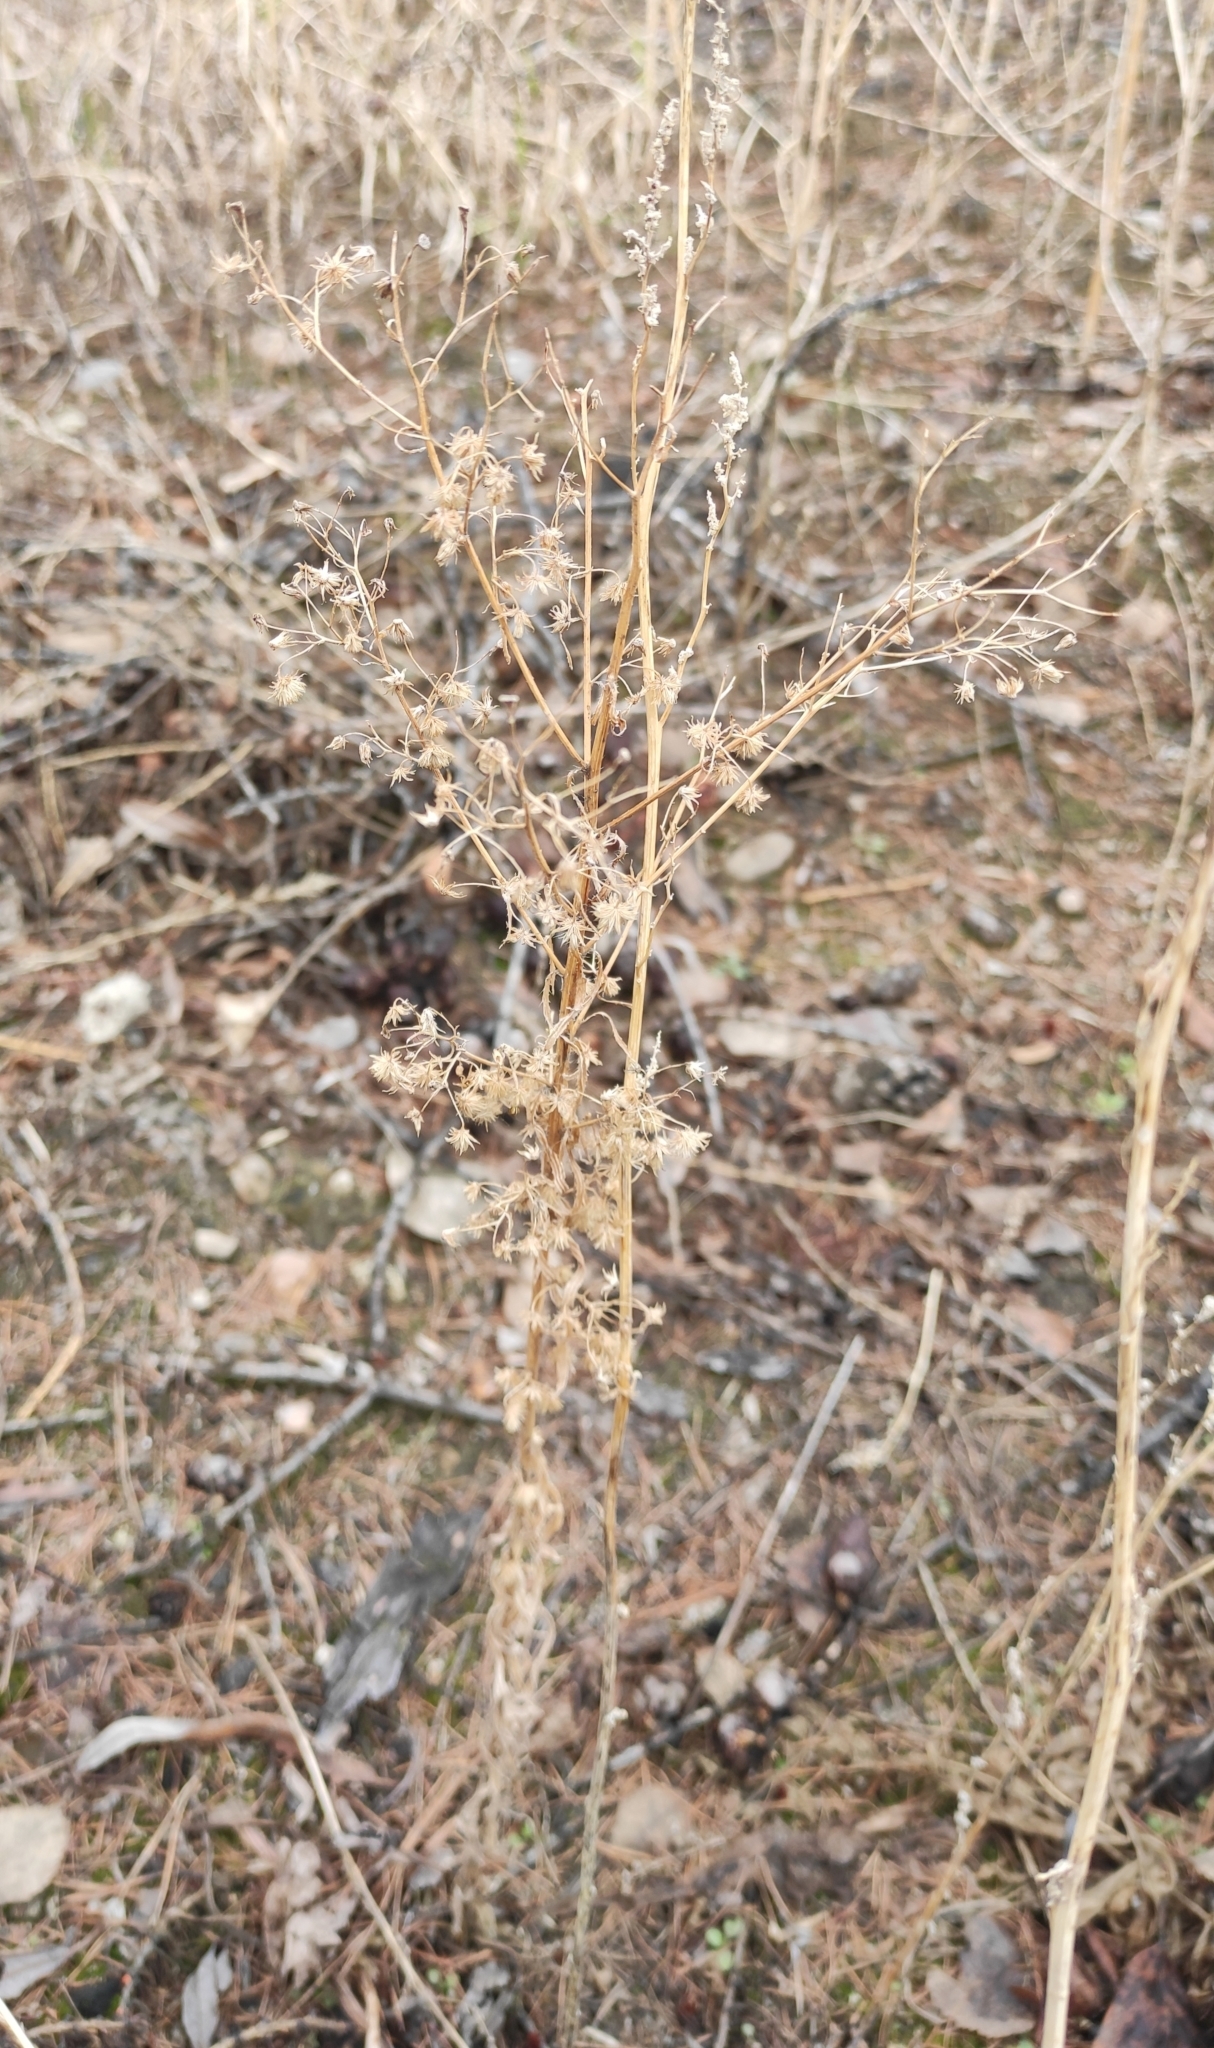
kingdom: Plantae
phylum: Tracheophyta
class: Magnoliopsida
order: Asterales
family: Asteraceae
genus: Erigeron
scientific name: Erigeron canadensis
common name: Canadian fleabane
